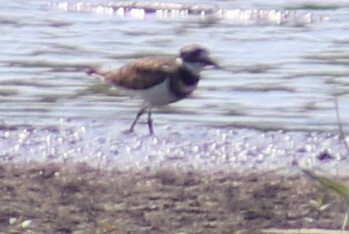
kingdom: Animalia
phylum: Chordata
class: Aves
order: Charadriiformes
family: Charadriidae
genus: Charadrius
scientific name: Charadrius vociferus
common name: Killdeer
